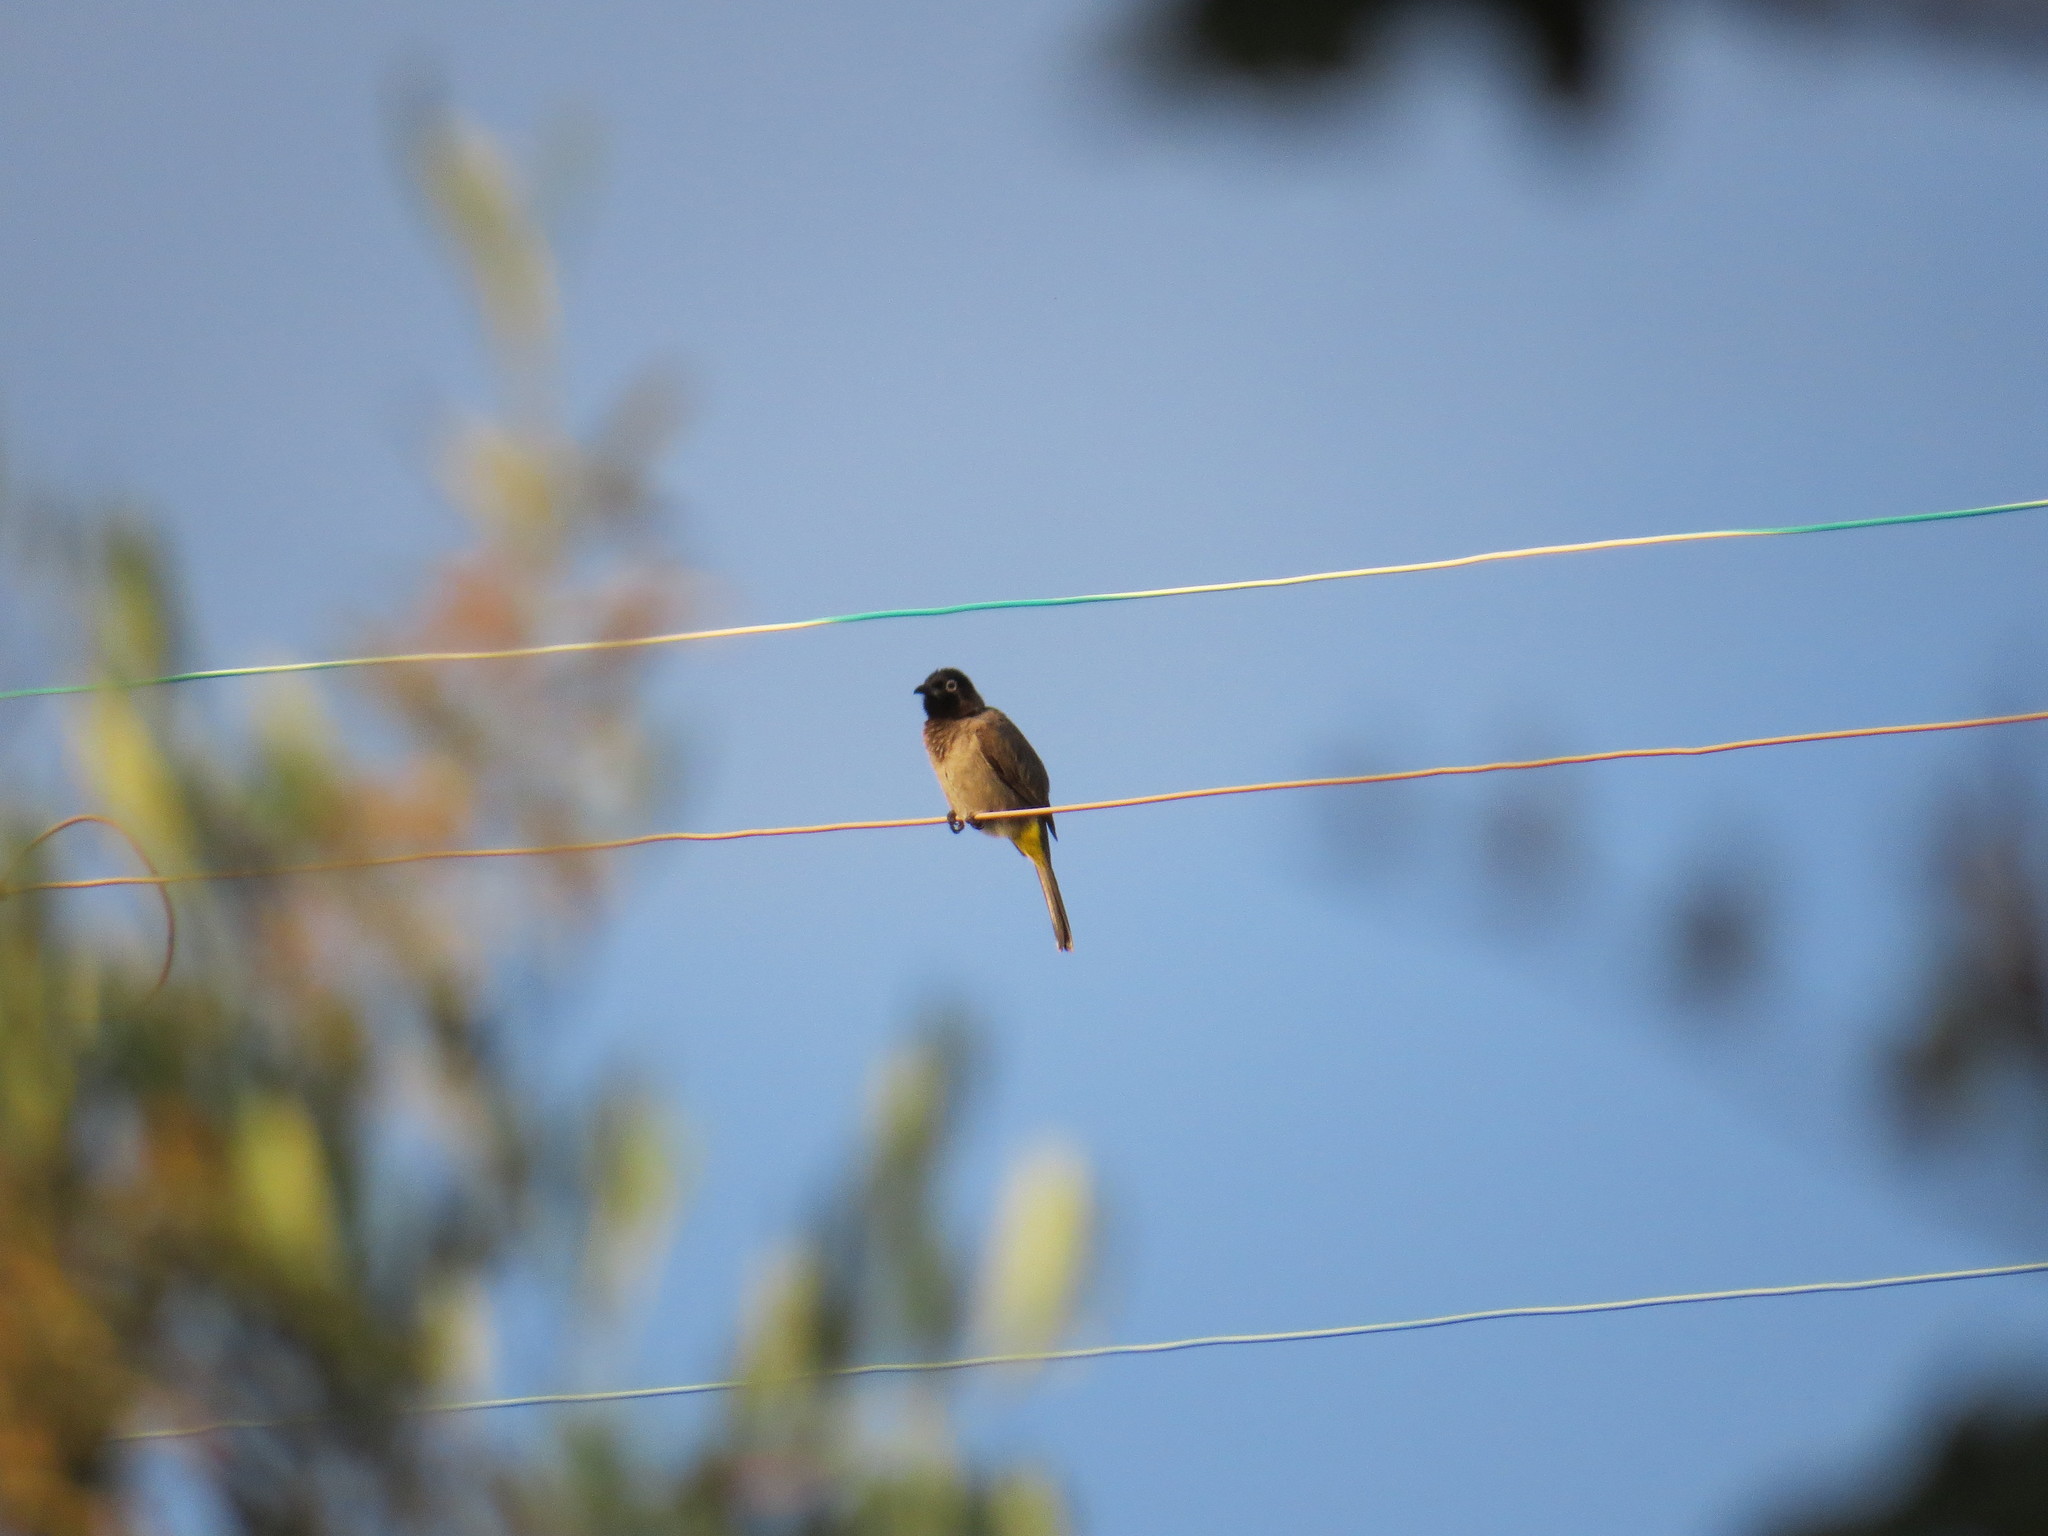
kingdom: Animalia
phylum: Chordata
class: Aves
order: Passeriformes
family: Pycnonotidae
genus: Pycnonotus
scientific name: Pycnonotus xanthopygos
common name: White-spectacled bulbul
